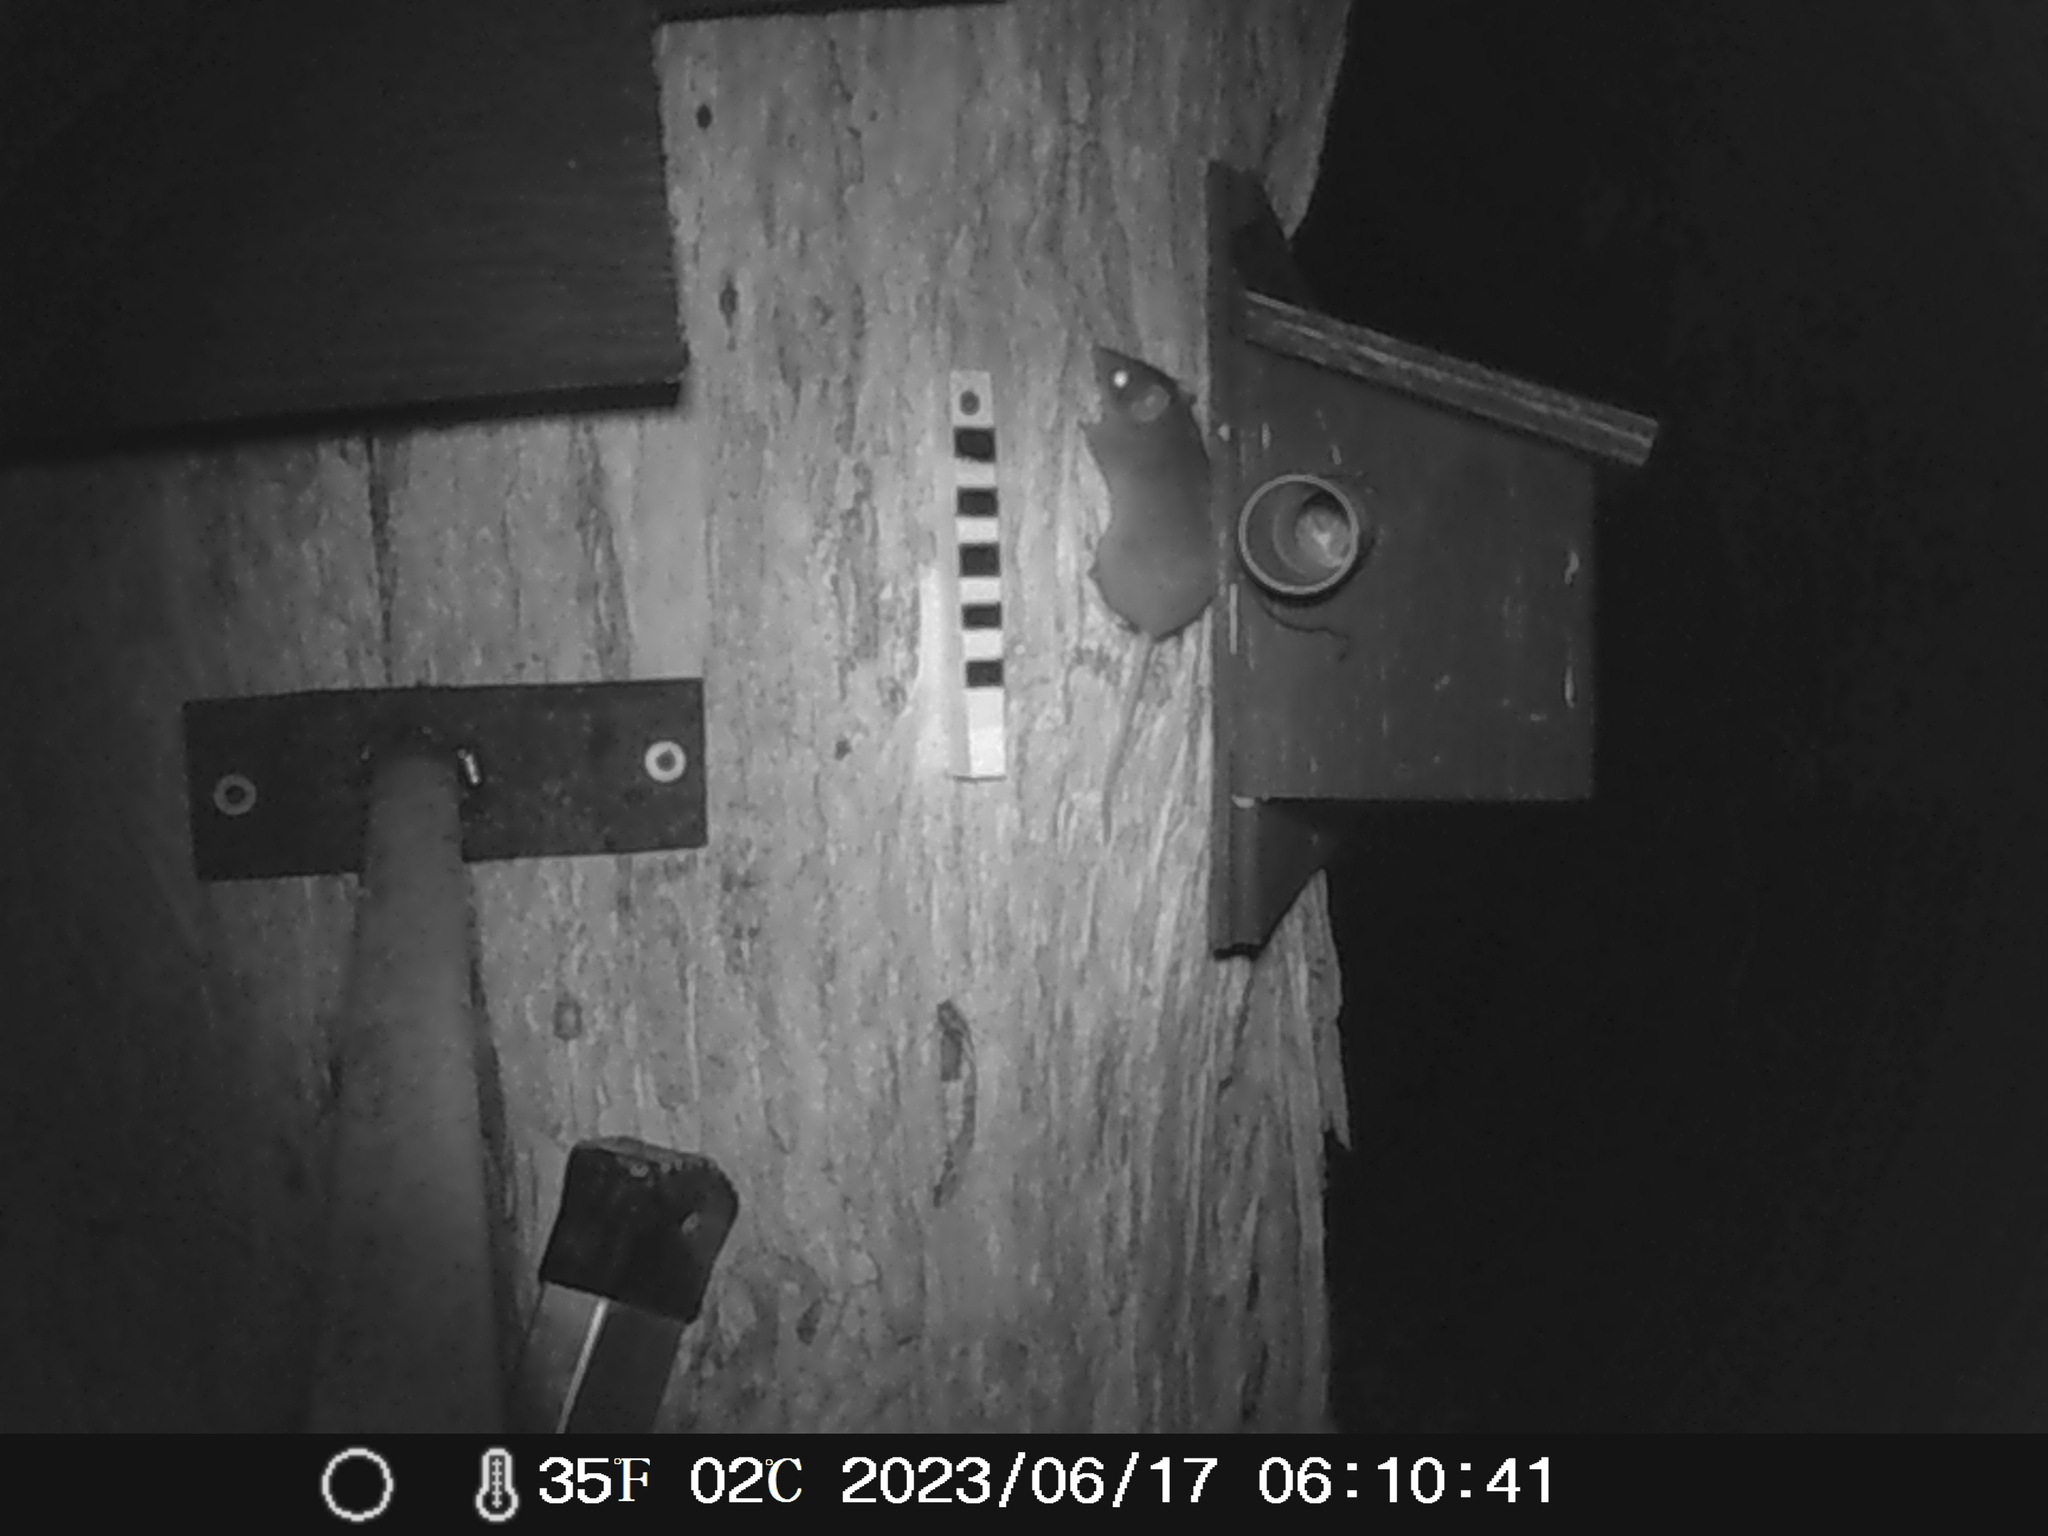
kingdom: Animalia
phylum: Chordata
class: Mammalia
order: Dasyuromorphia
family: Dasyuridae
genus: Antechinus
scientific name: Antechinus agilis
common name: Agile antechinus
